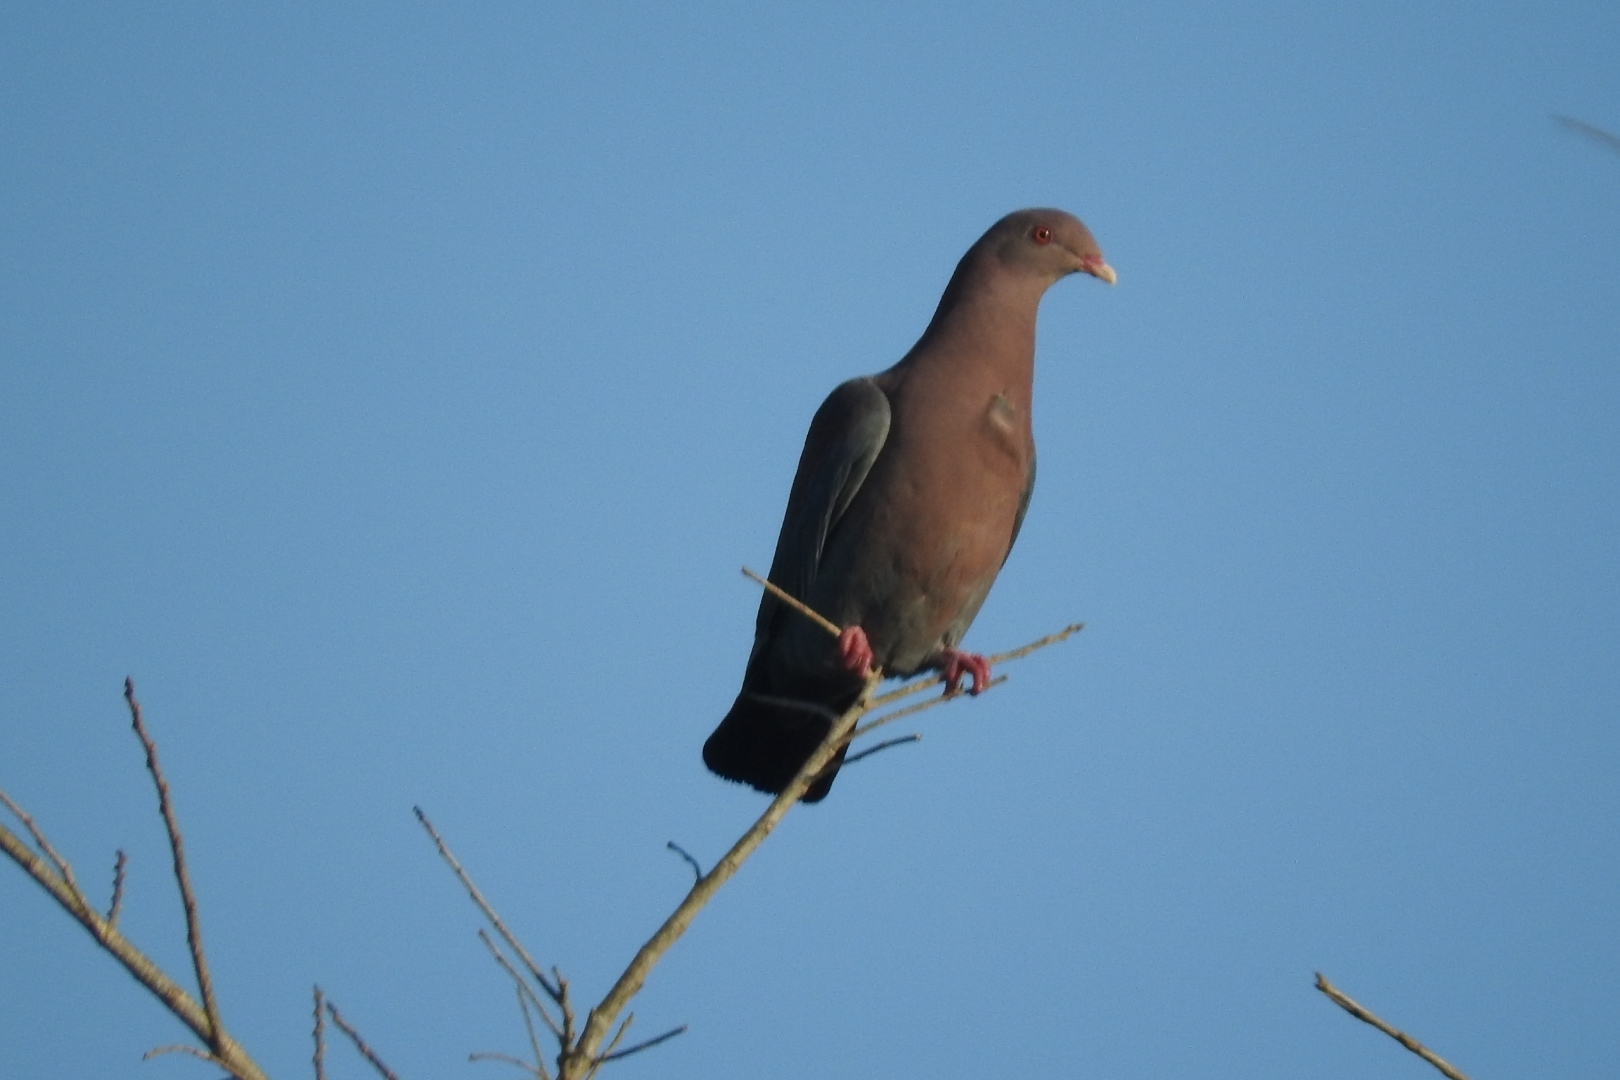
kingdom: Animalia
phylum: Chordata
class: Aves
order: Columbiformes
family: Columbidae
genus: Patagioenas
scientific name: Patagioenas flavirostris
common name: Red-billed pigeon
